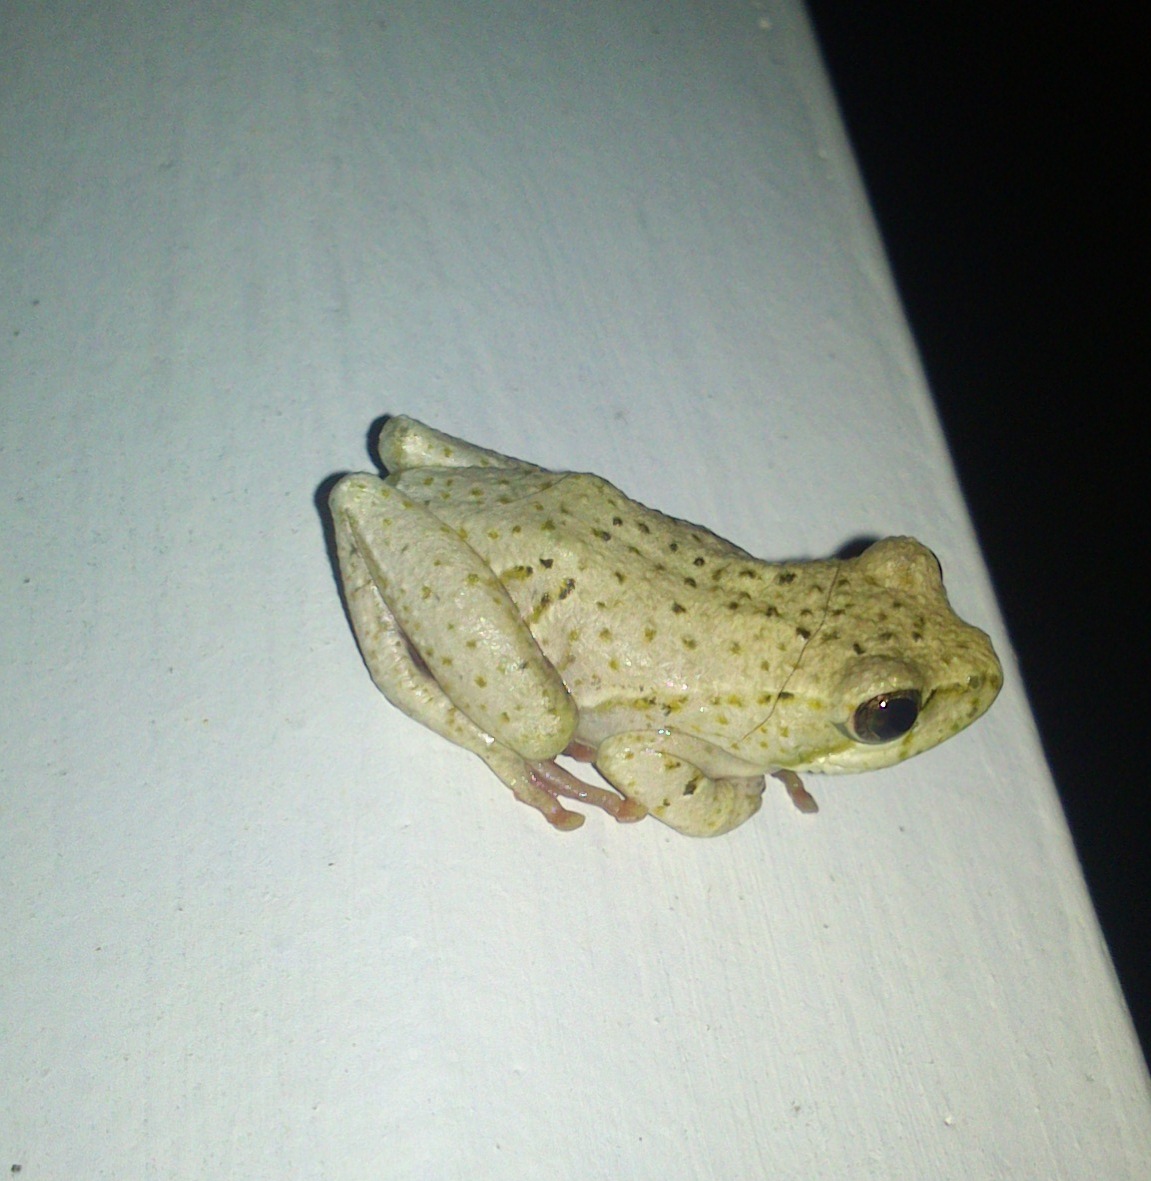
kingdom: Animalia
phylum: Chordata
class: Amphibia
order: Anura
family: Hyperoliidae
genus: Hyperolius
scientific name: Hyperolius marmoratus
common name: Painted reed frog
